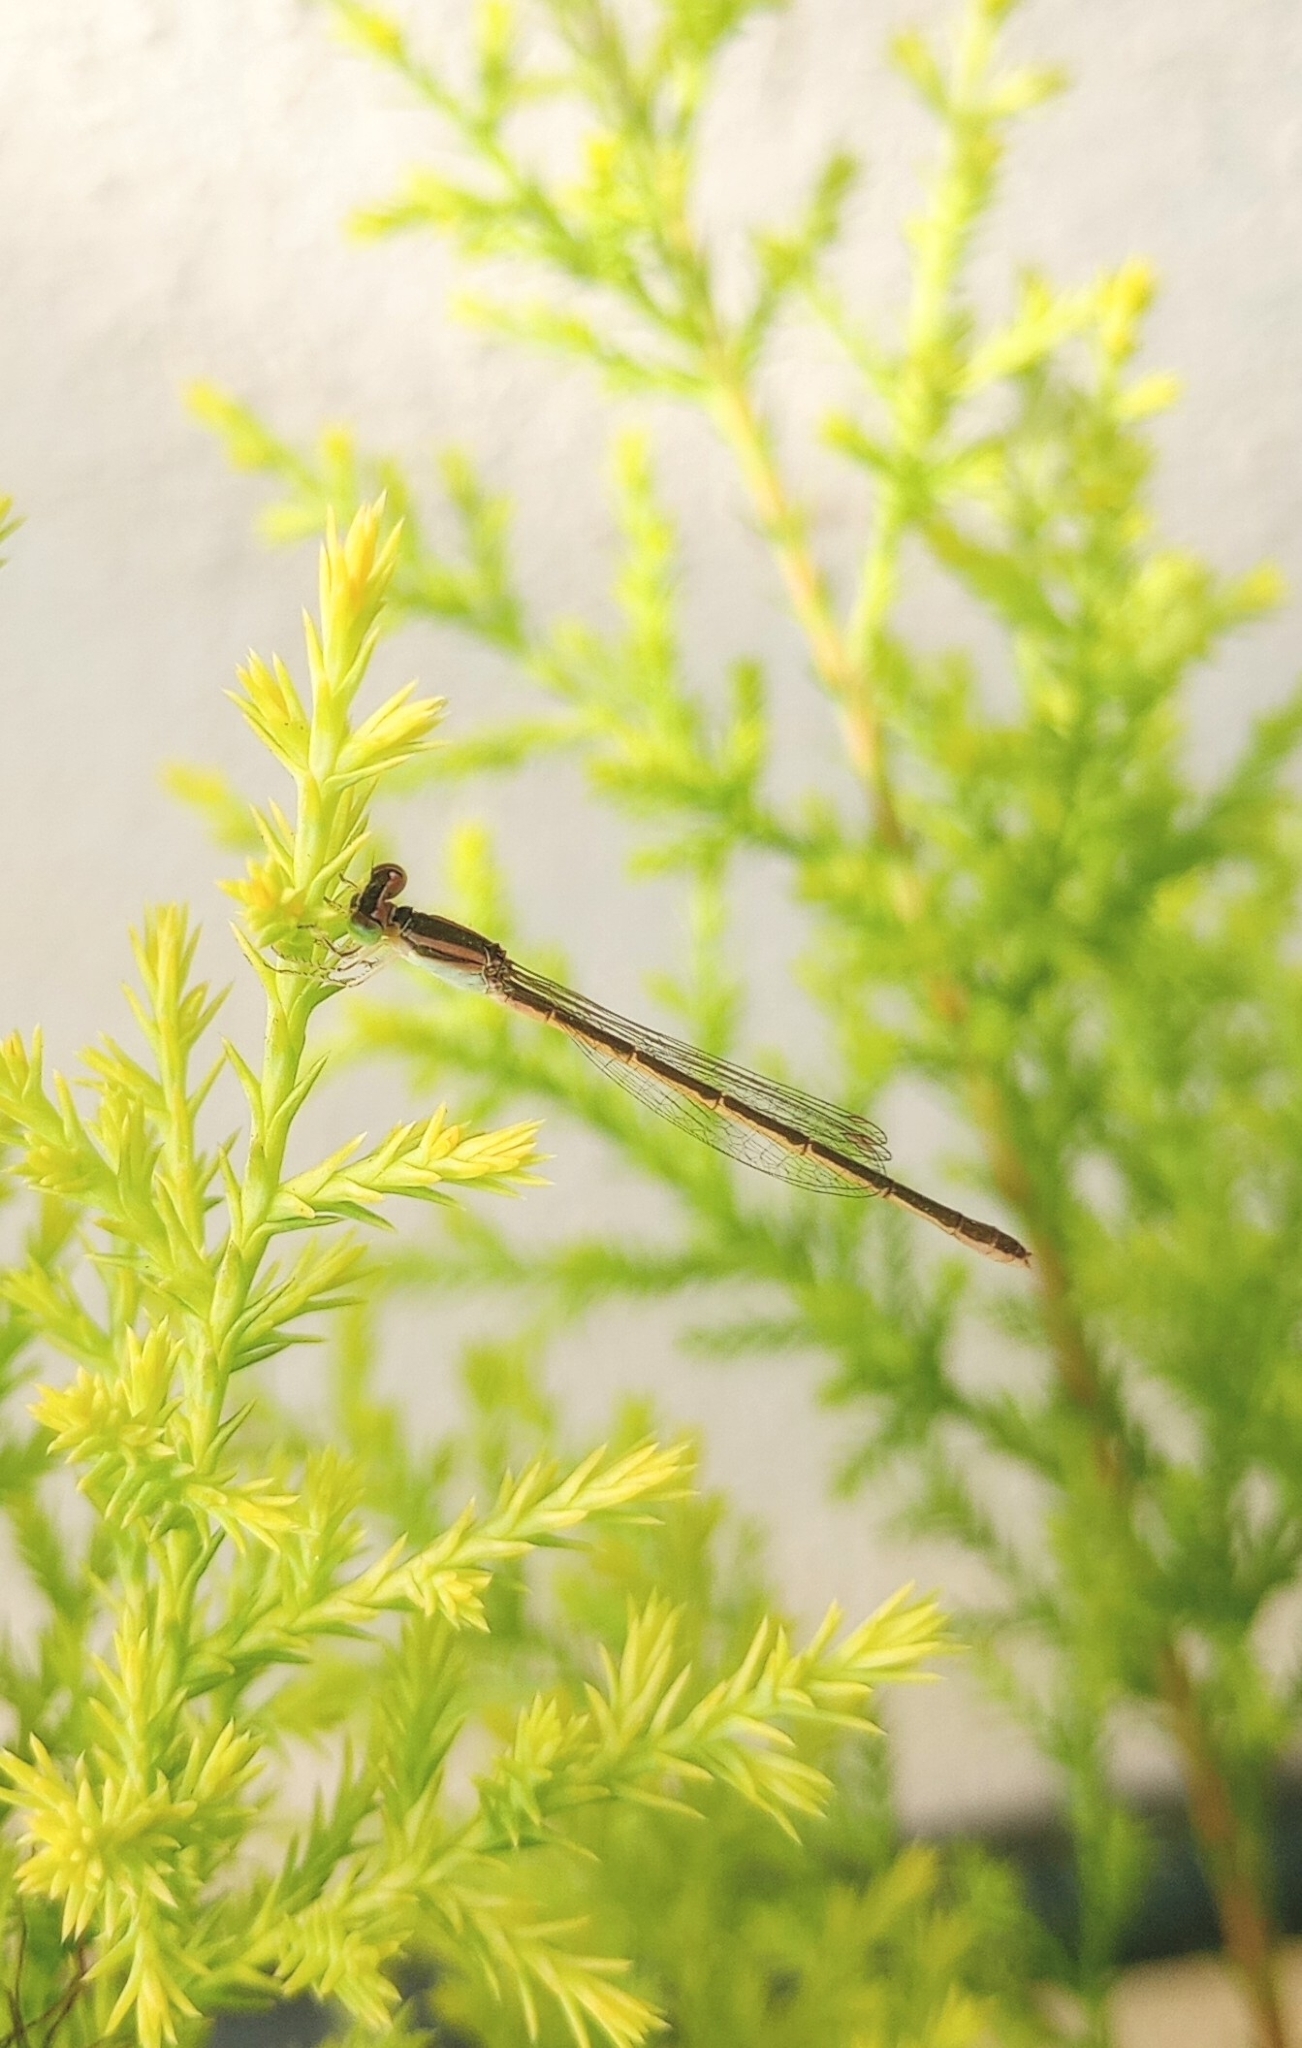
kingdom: Animalia
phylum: Arthropoda
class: Insecta
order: Odonata
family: Coenagrionidae
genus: Agriocnemis
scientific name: Agriocnemis pygmaea
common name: Pygmy wisp
